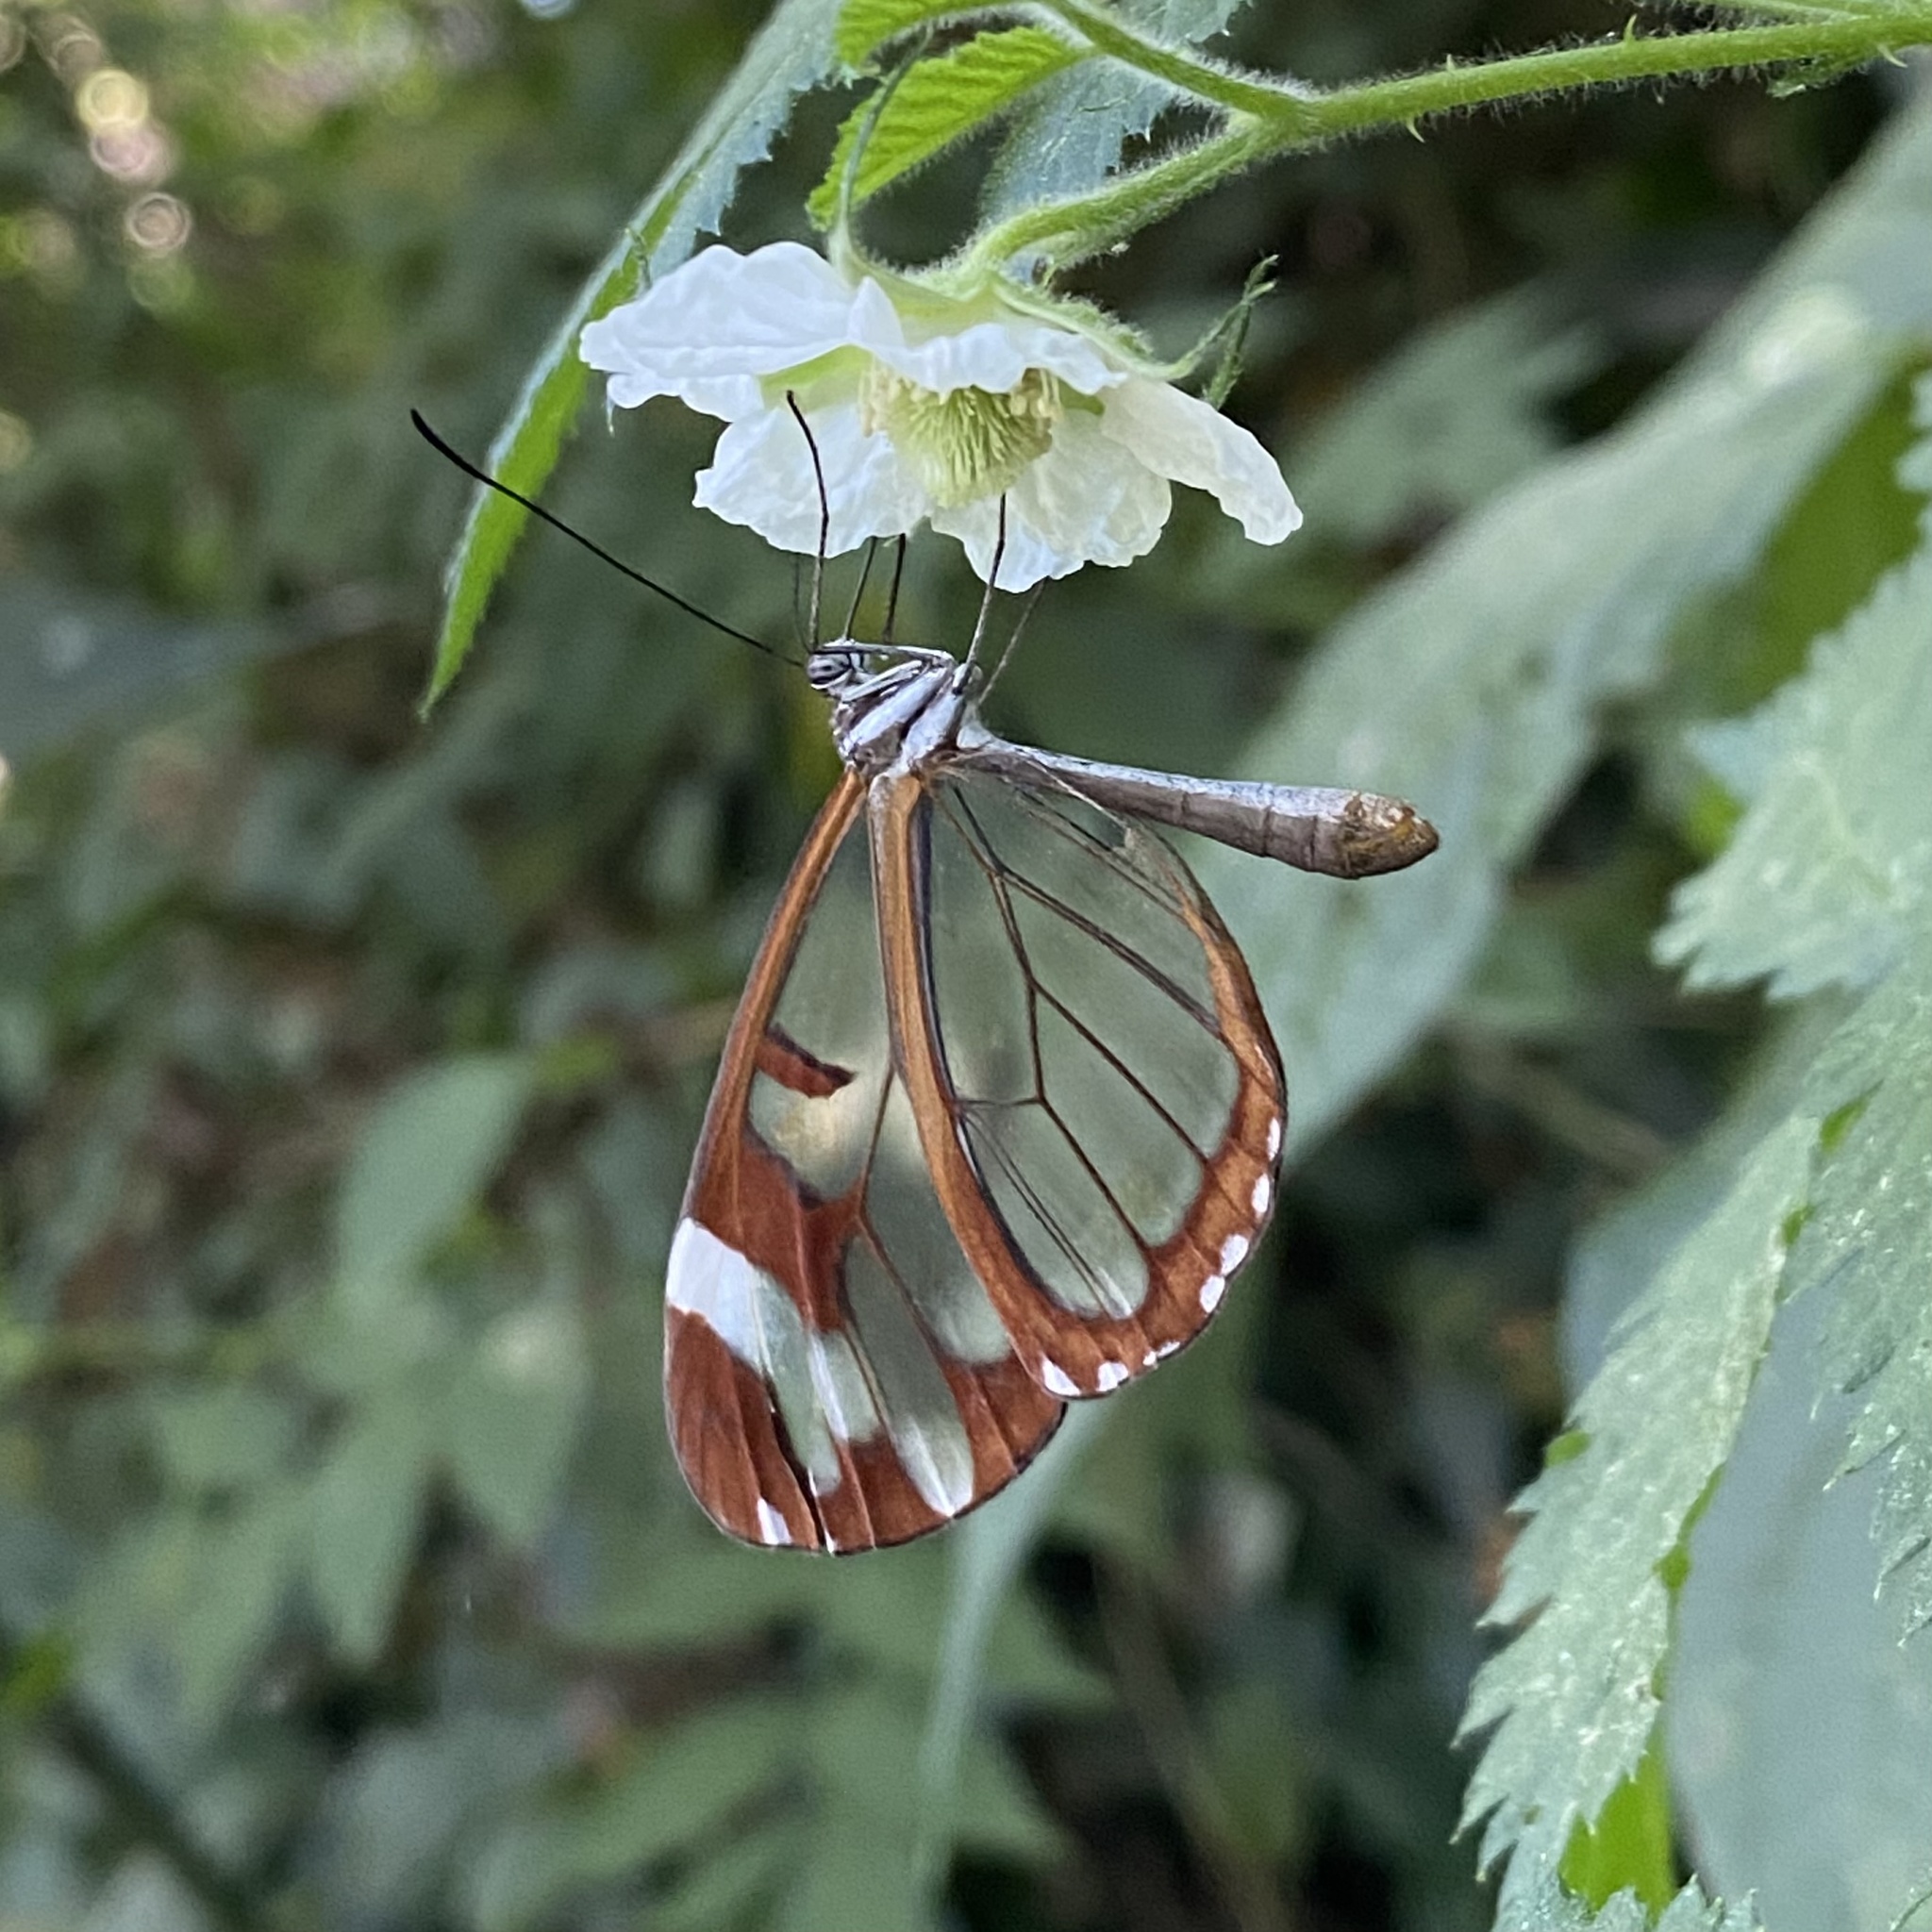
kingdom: Animalia
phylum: Arthropoda
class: Insecta
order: Lepidoptera
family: Nymphalidae
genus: Oleria
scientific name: Oleria zea
